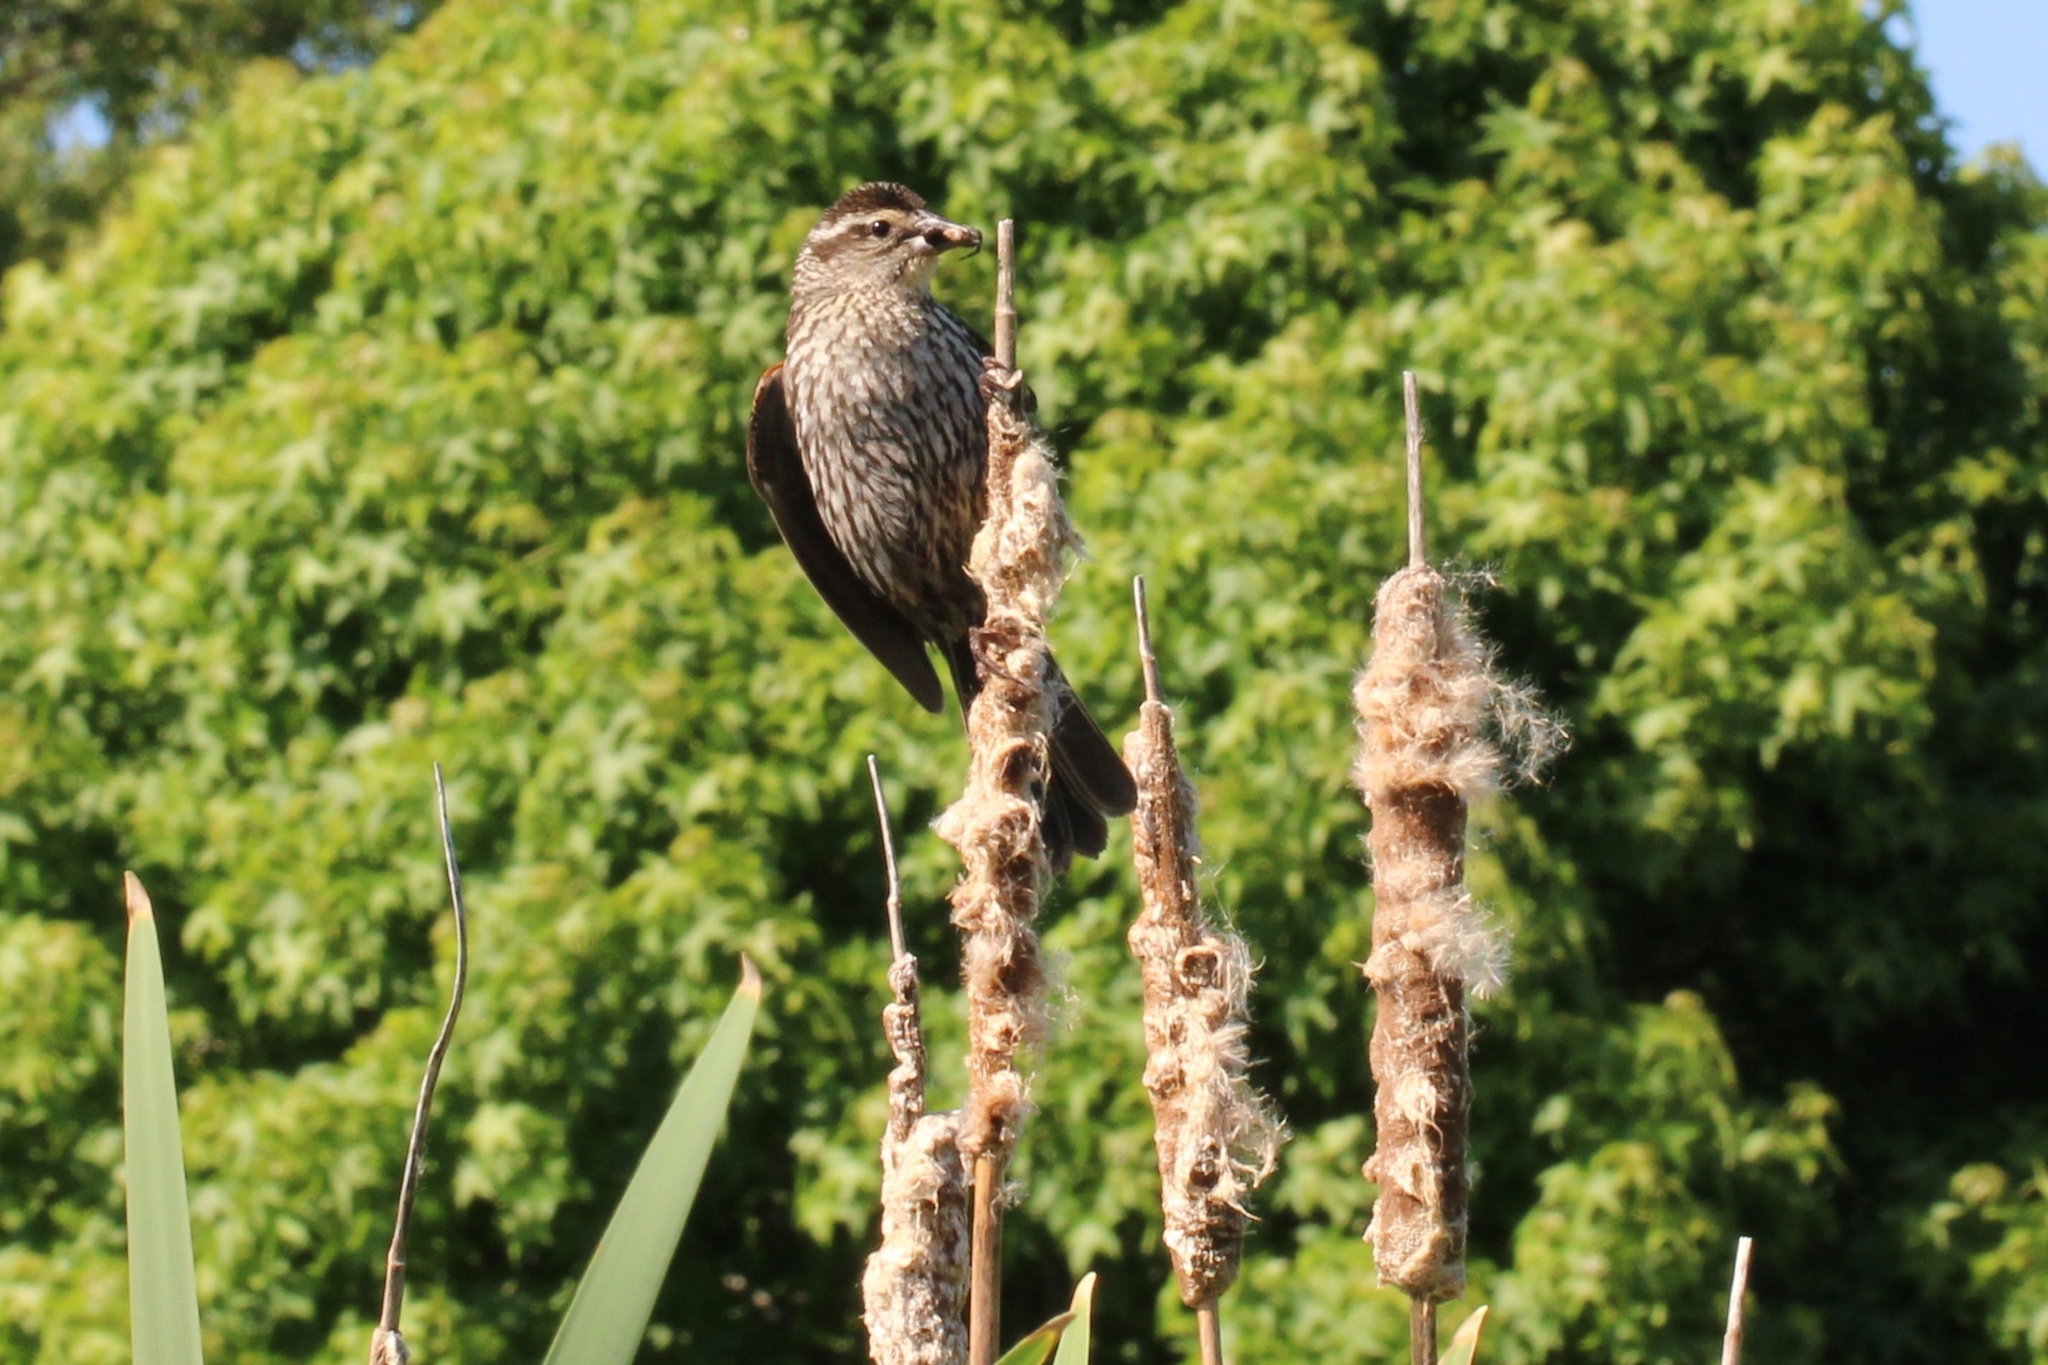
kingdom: Animalia
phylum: Chordata
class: Aves
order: Passeriformes
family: Icteridae
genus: Agelaius
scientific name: Agelaius phoeniceus
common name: Red-winged blackbird
